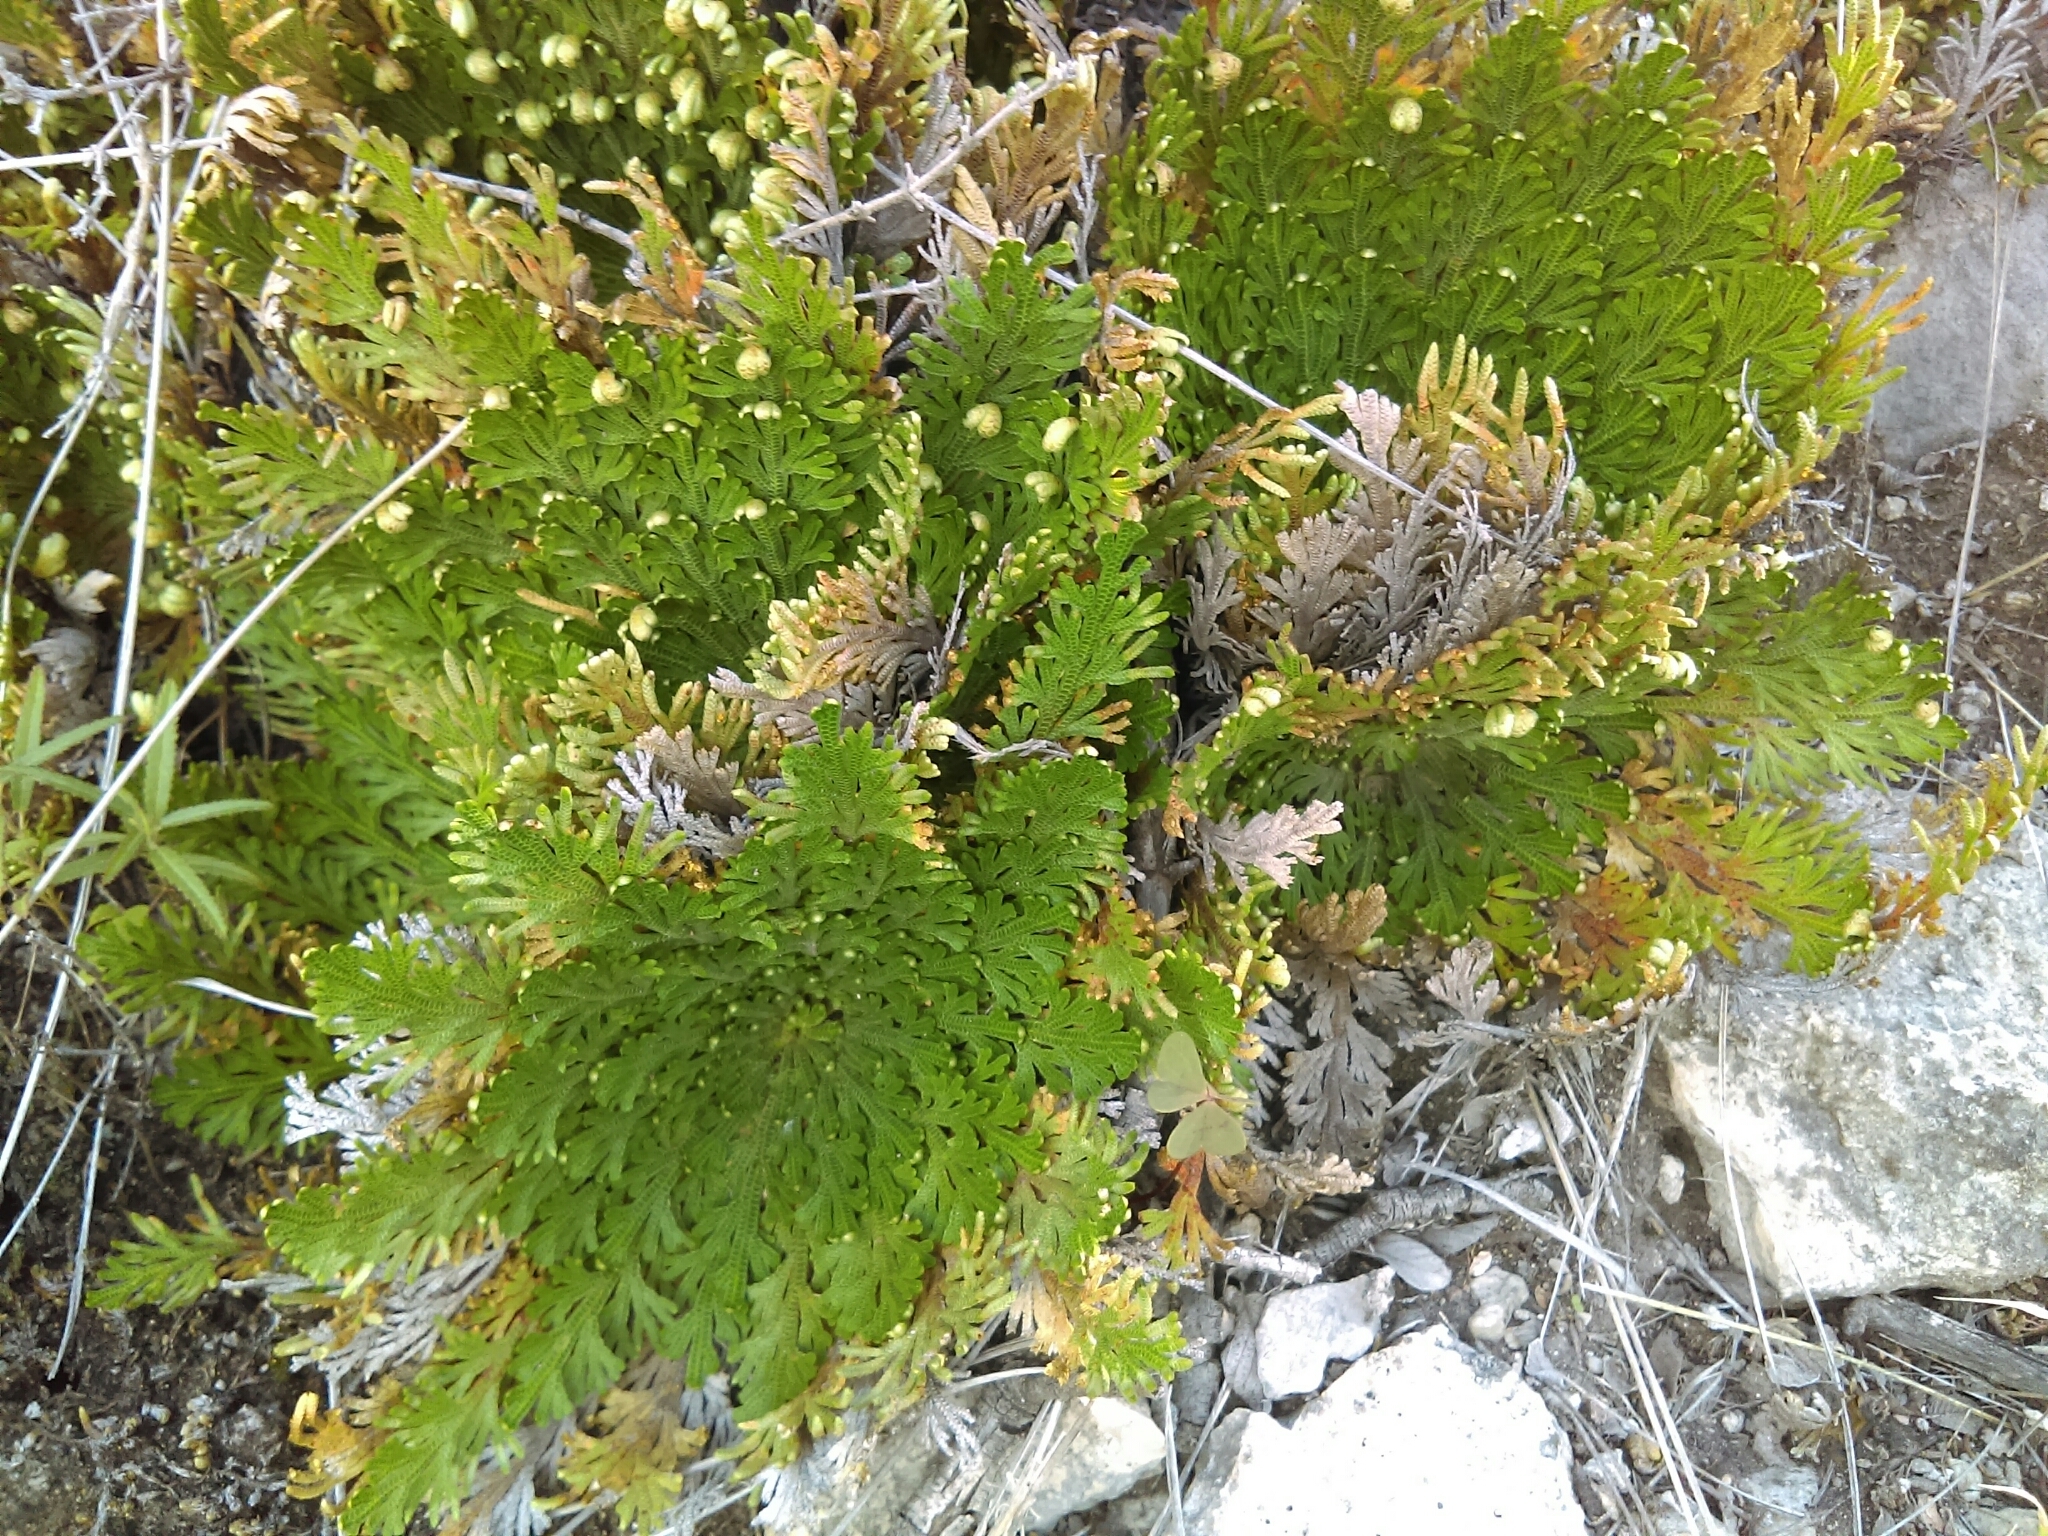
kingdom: Plantae
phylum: Tracheophyta
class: Lycopodiopsida
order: Selaginellales
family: Selaginellaceae
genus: Selaginella
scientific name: Selaginella lepidophylla
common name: Rose-of-jericho
